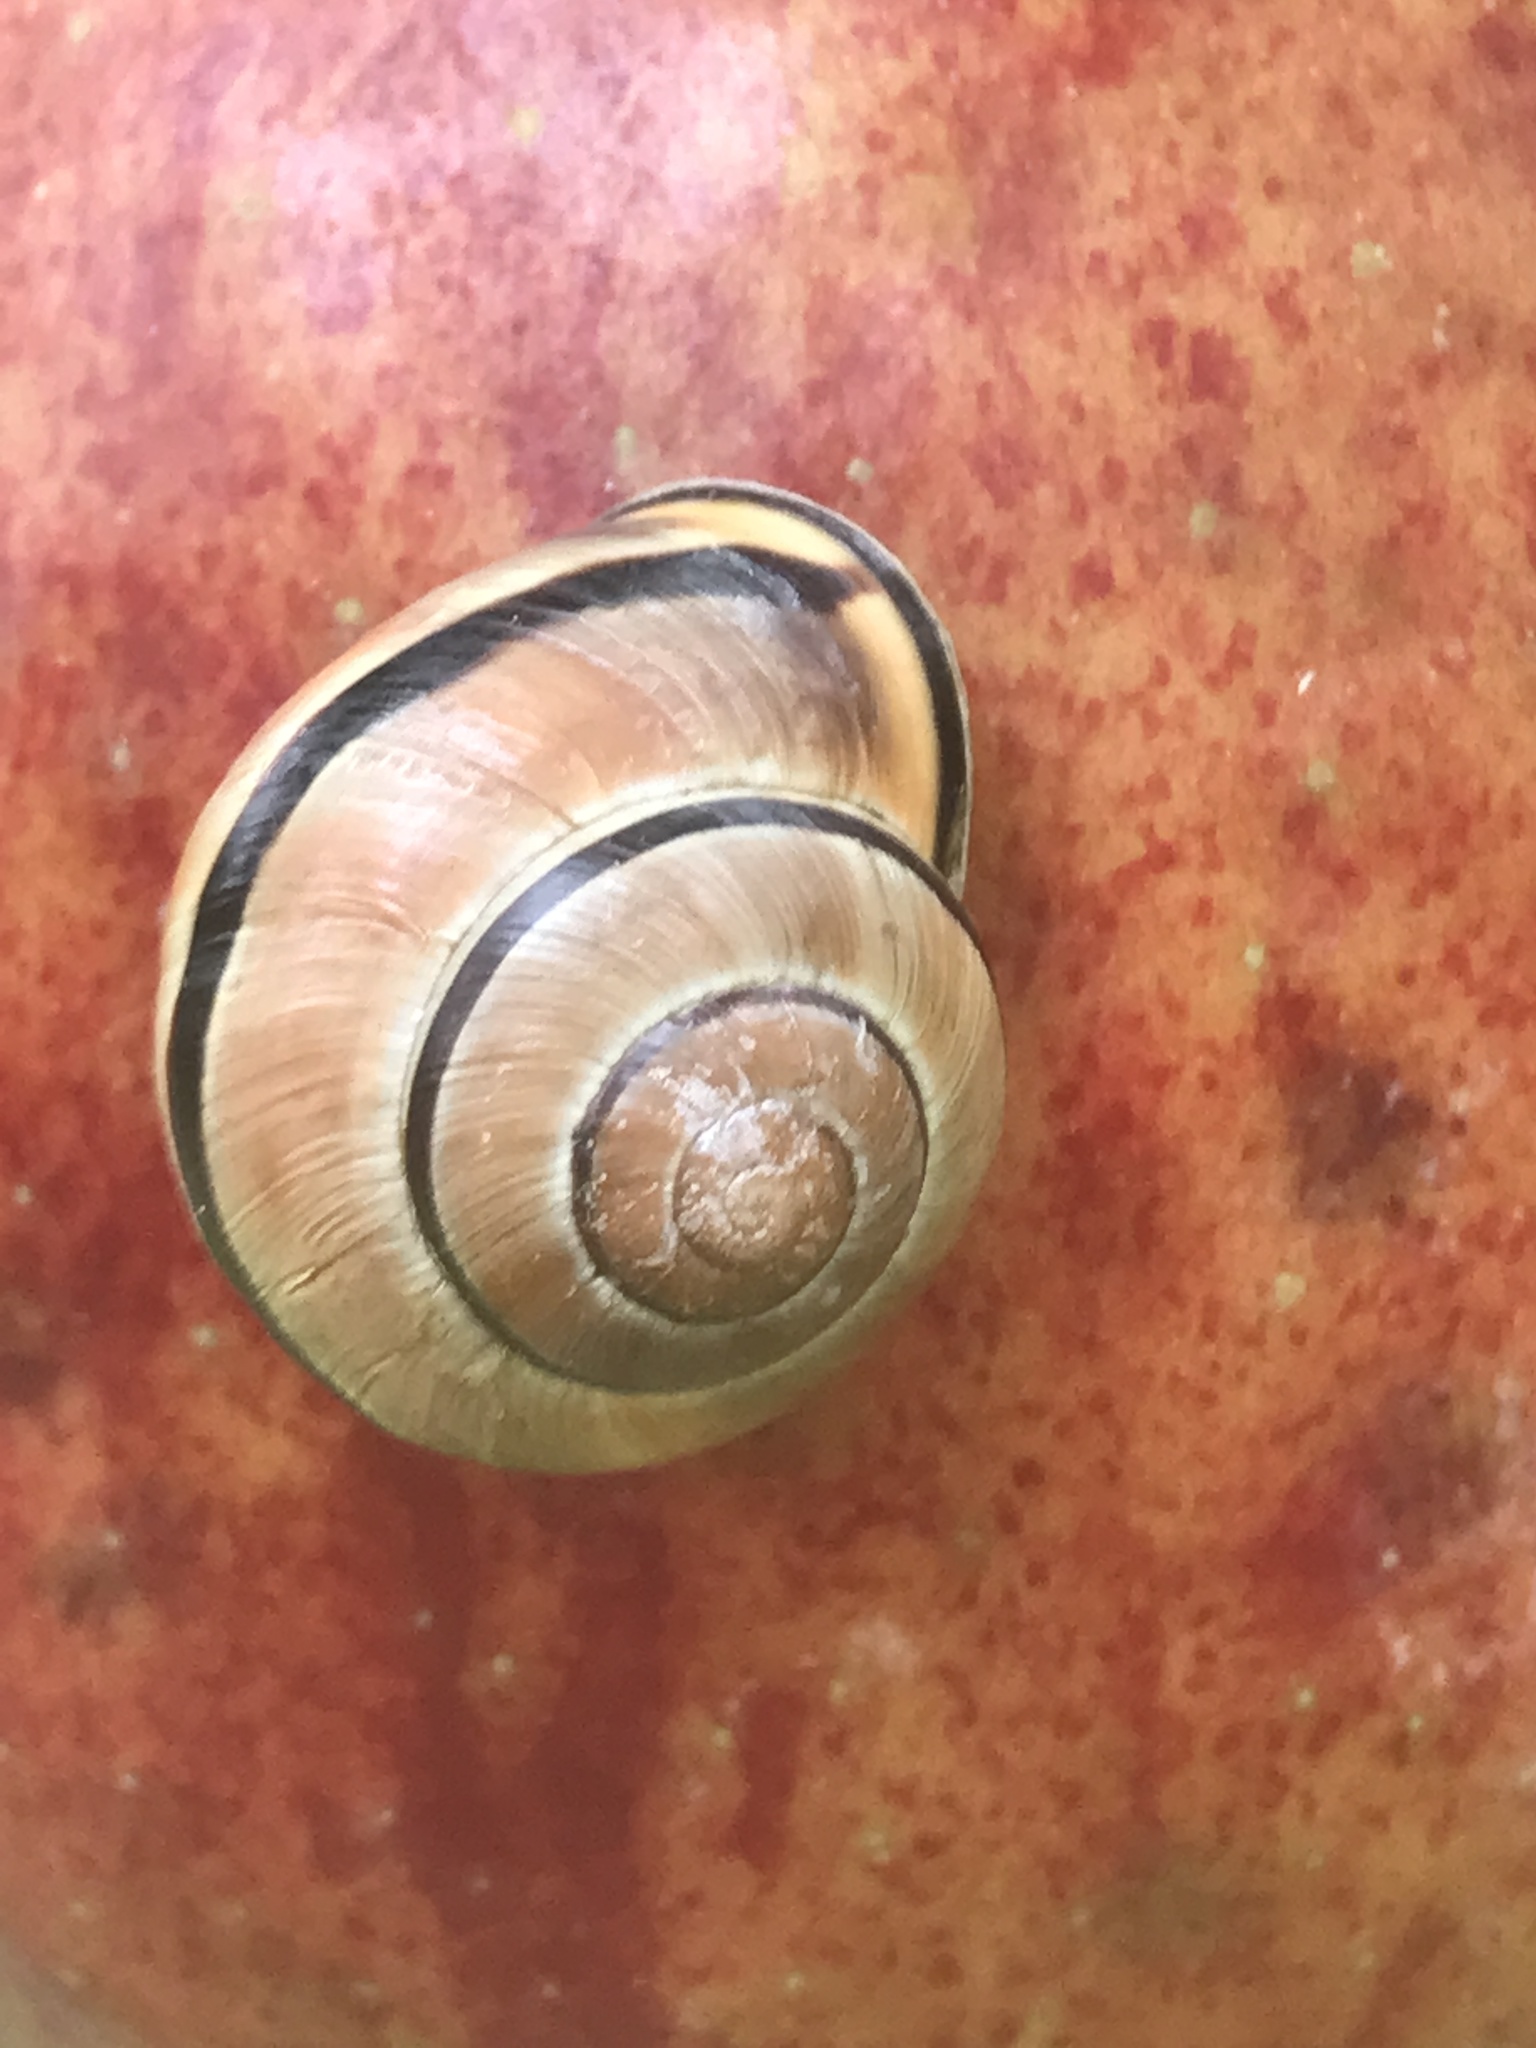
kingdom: Animalia
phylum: Mollusca
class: Gastropoda
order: Stylommatophora
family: Helicidae
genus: Cepaea
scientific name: Cepaea nemoralis
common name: Grovesnail
